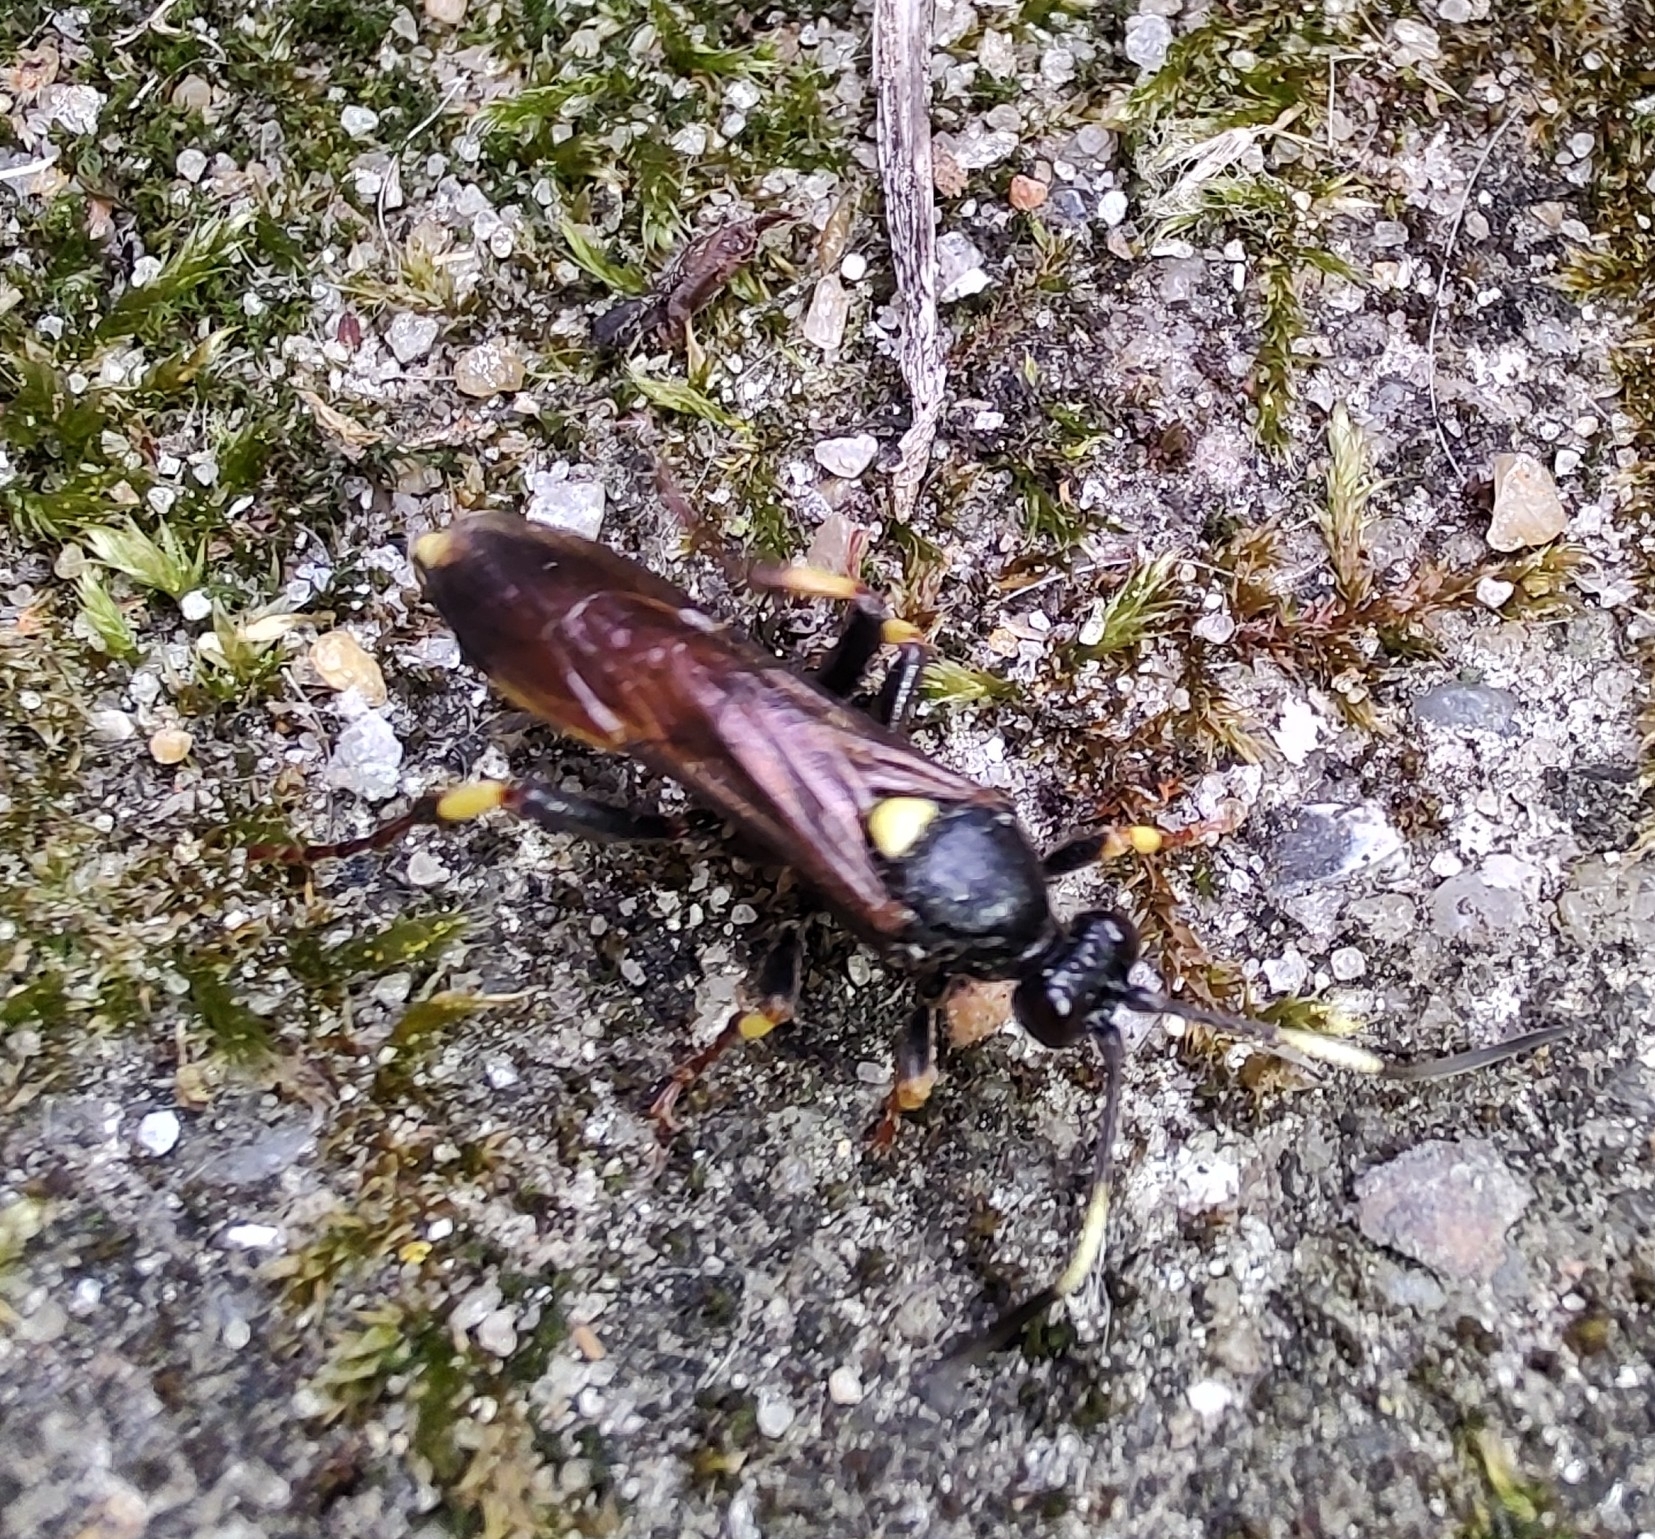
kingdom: Animalia
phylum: Arthropoda
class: Insecta
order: Hymenoptera
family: Ichneumonidae
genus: Ichneumon
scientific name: Ichneumon stramentor
